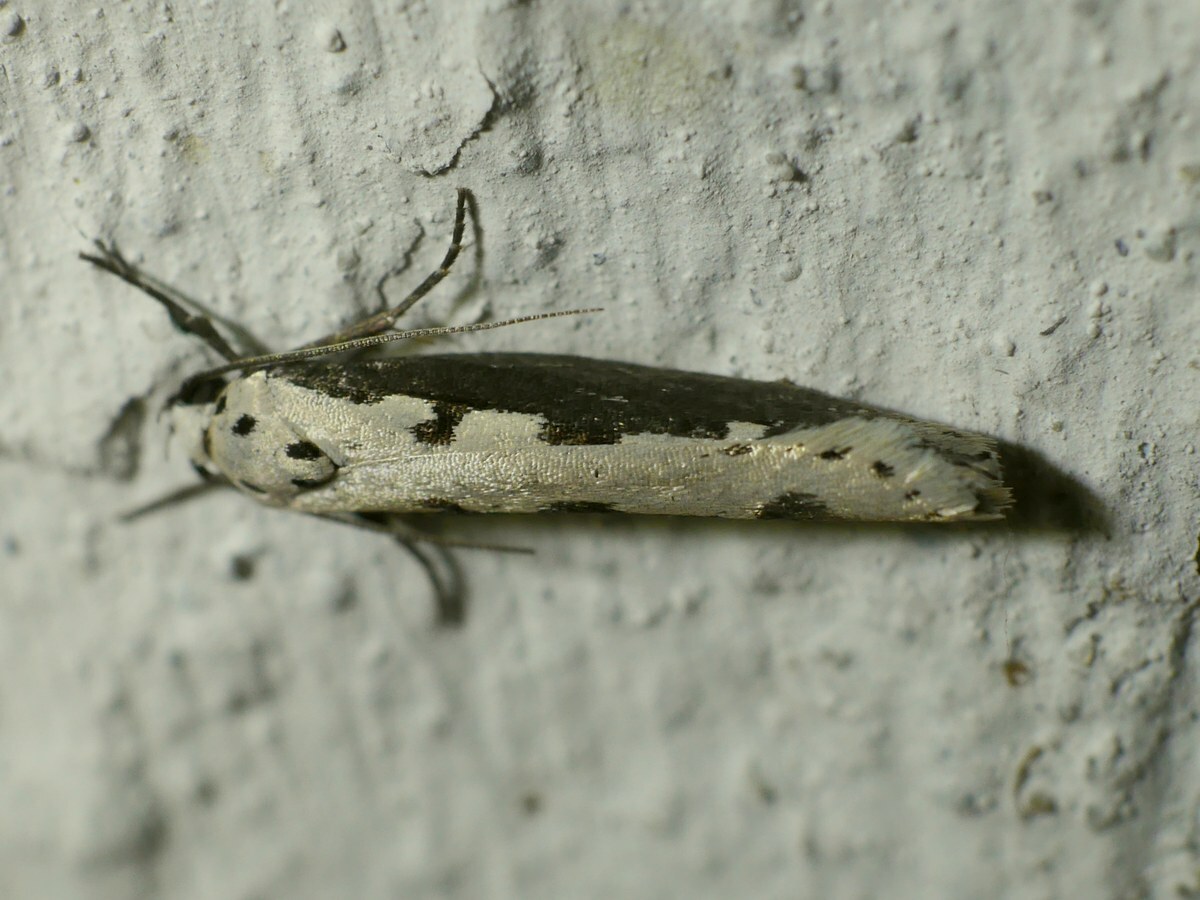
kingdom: Animalia
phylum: Arthropoda
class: Insecta
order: Lepidoptera
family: Ethmiidae
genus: Ethmia
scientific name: Ethmia bipunctella
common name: Bordered ermel
